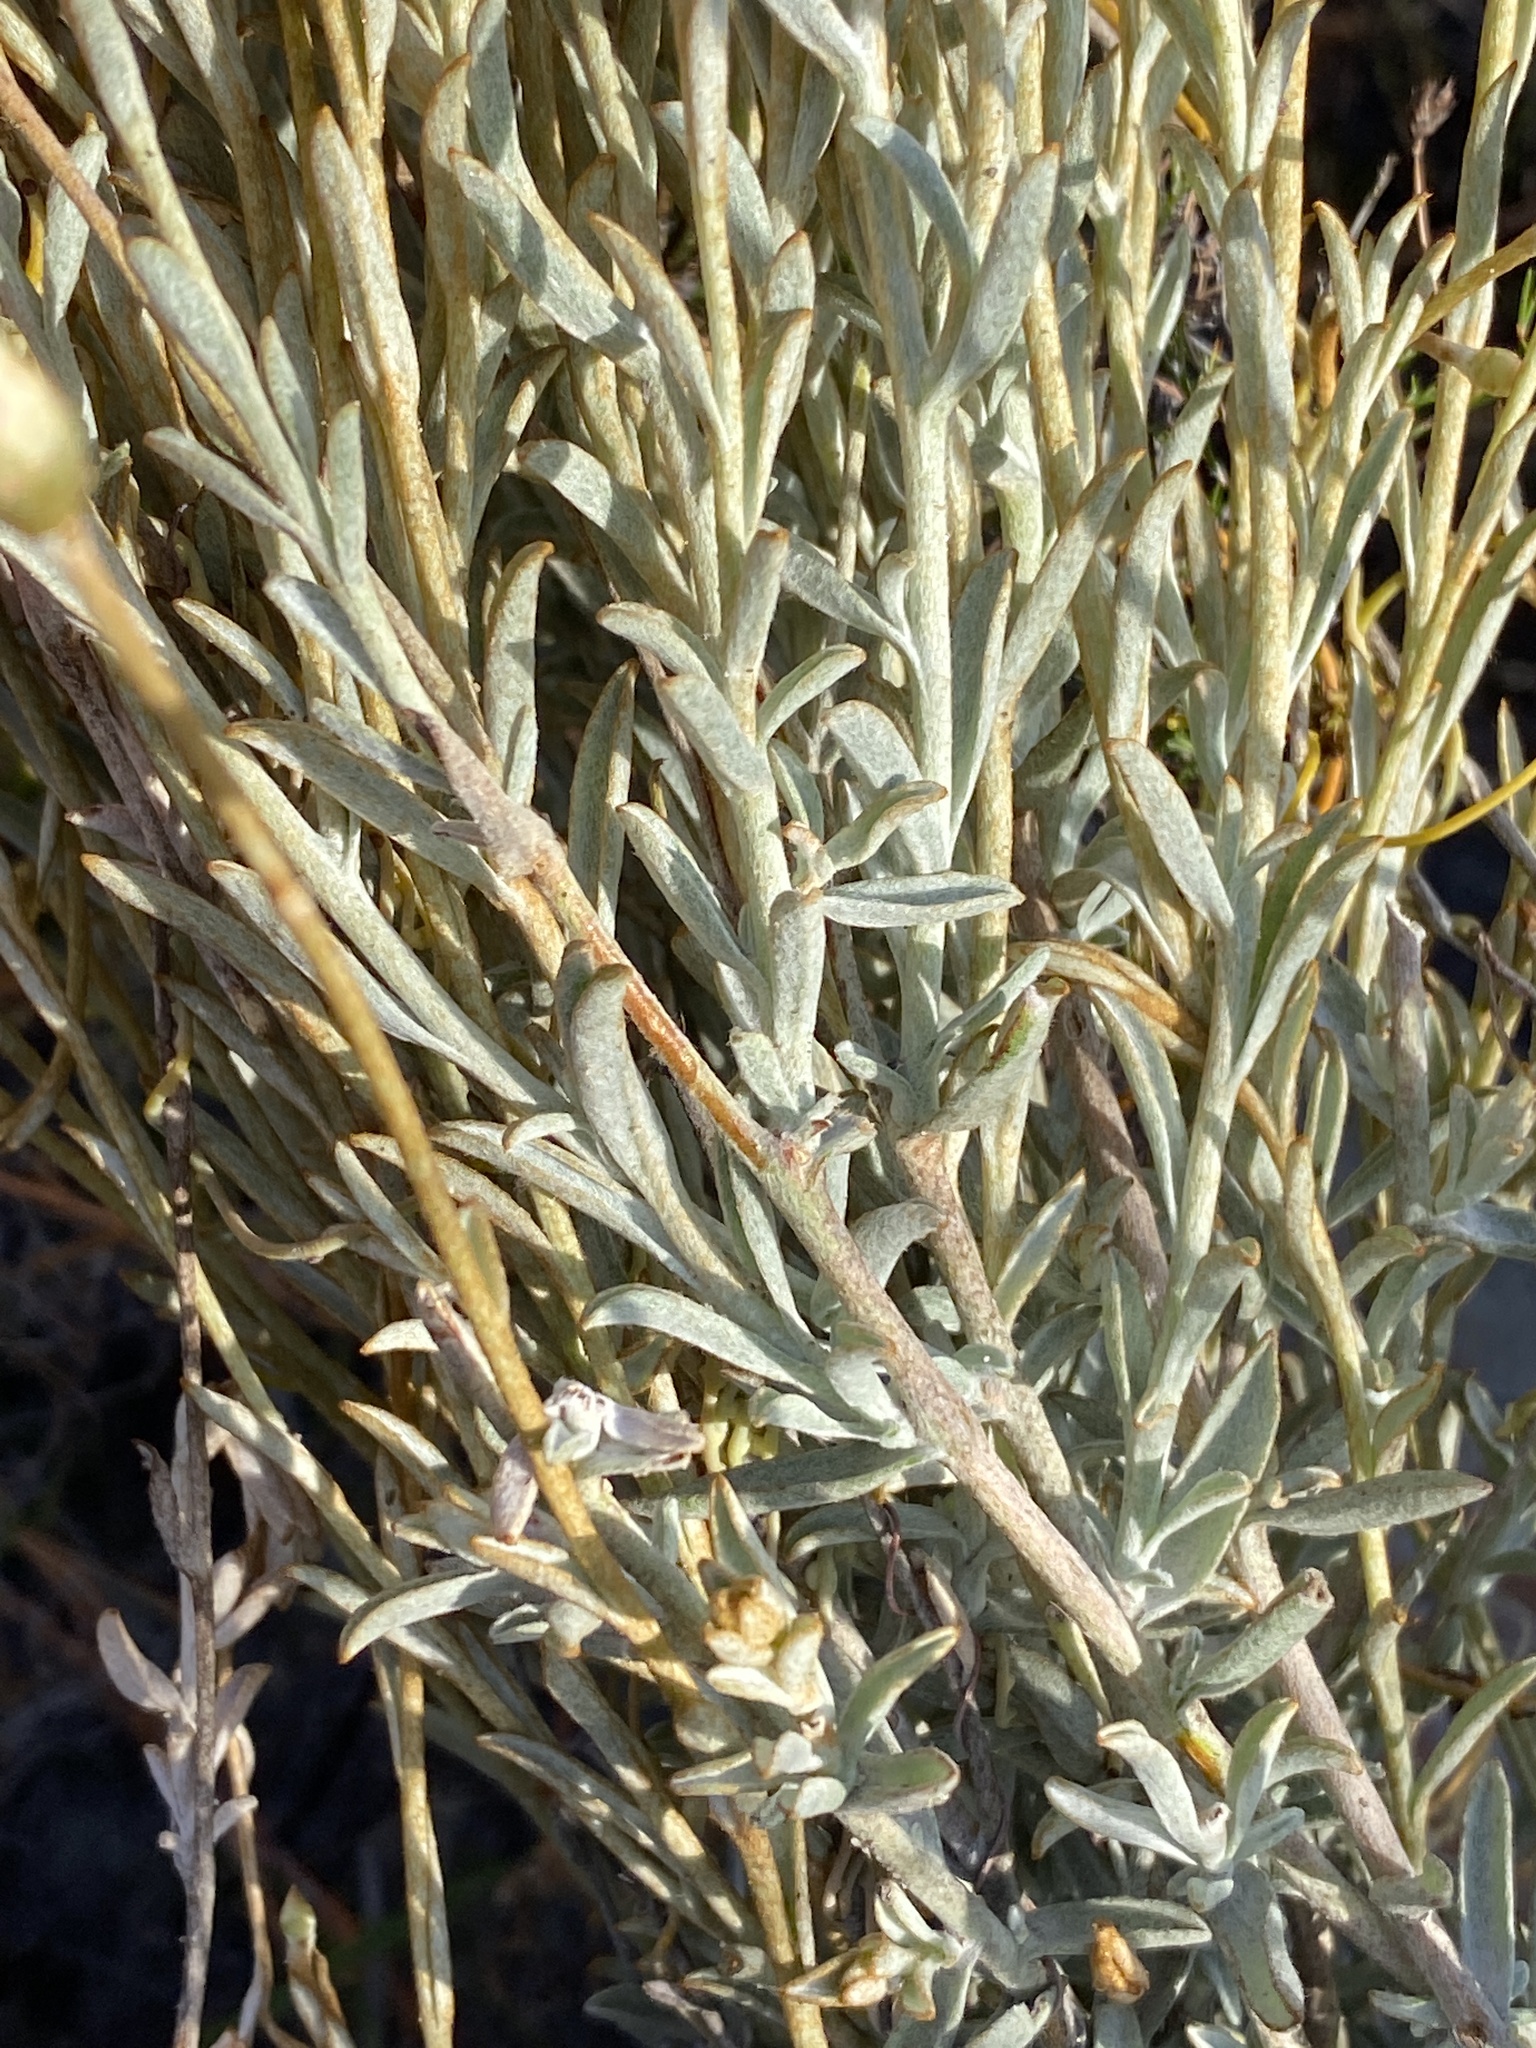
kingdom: Plantae
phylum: Tracheophyta
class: Magnoliopsida
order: Asterales
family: Asteraceae
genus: Syncarpha
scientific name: Syncarpha staehelina
